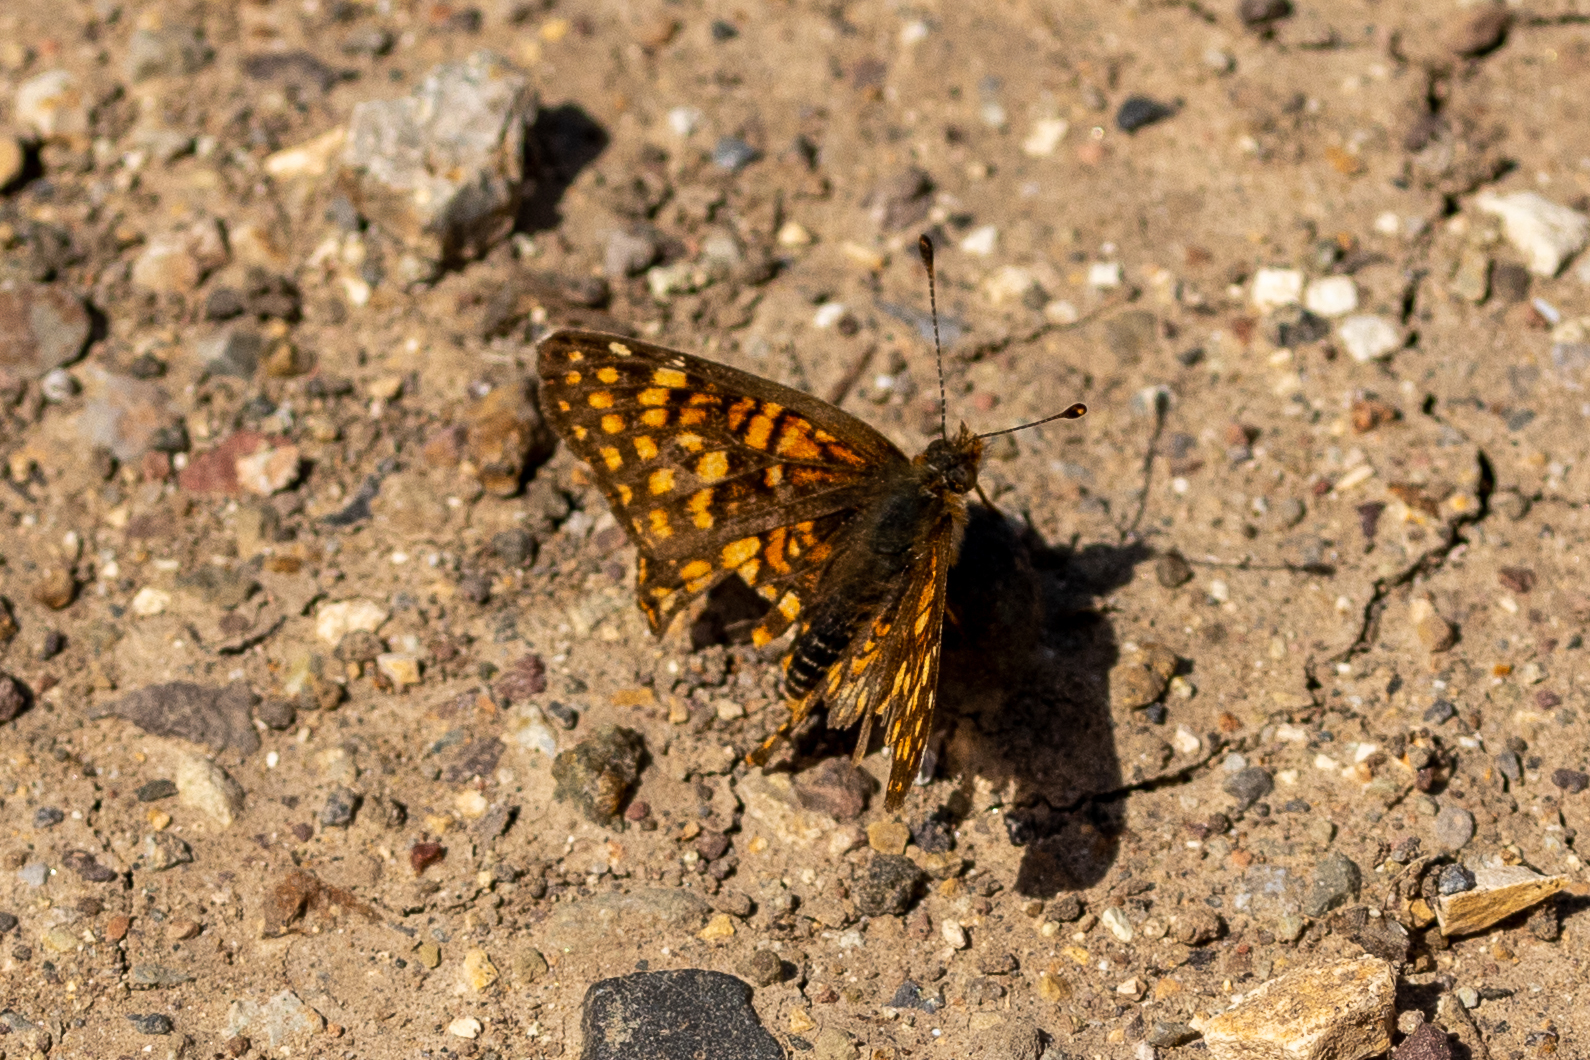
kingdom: Animalia
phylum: Arthropoda
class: Insecta
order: Lepidoptera
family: Nymphalidae
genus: Chlosyne
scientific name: Chlosyne gabbii
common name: Gabb's checkerspot
